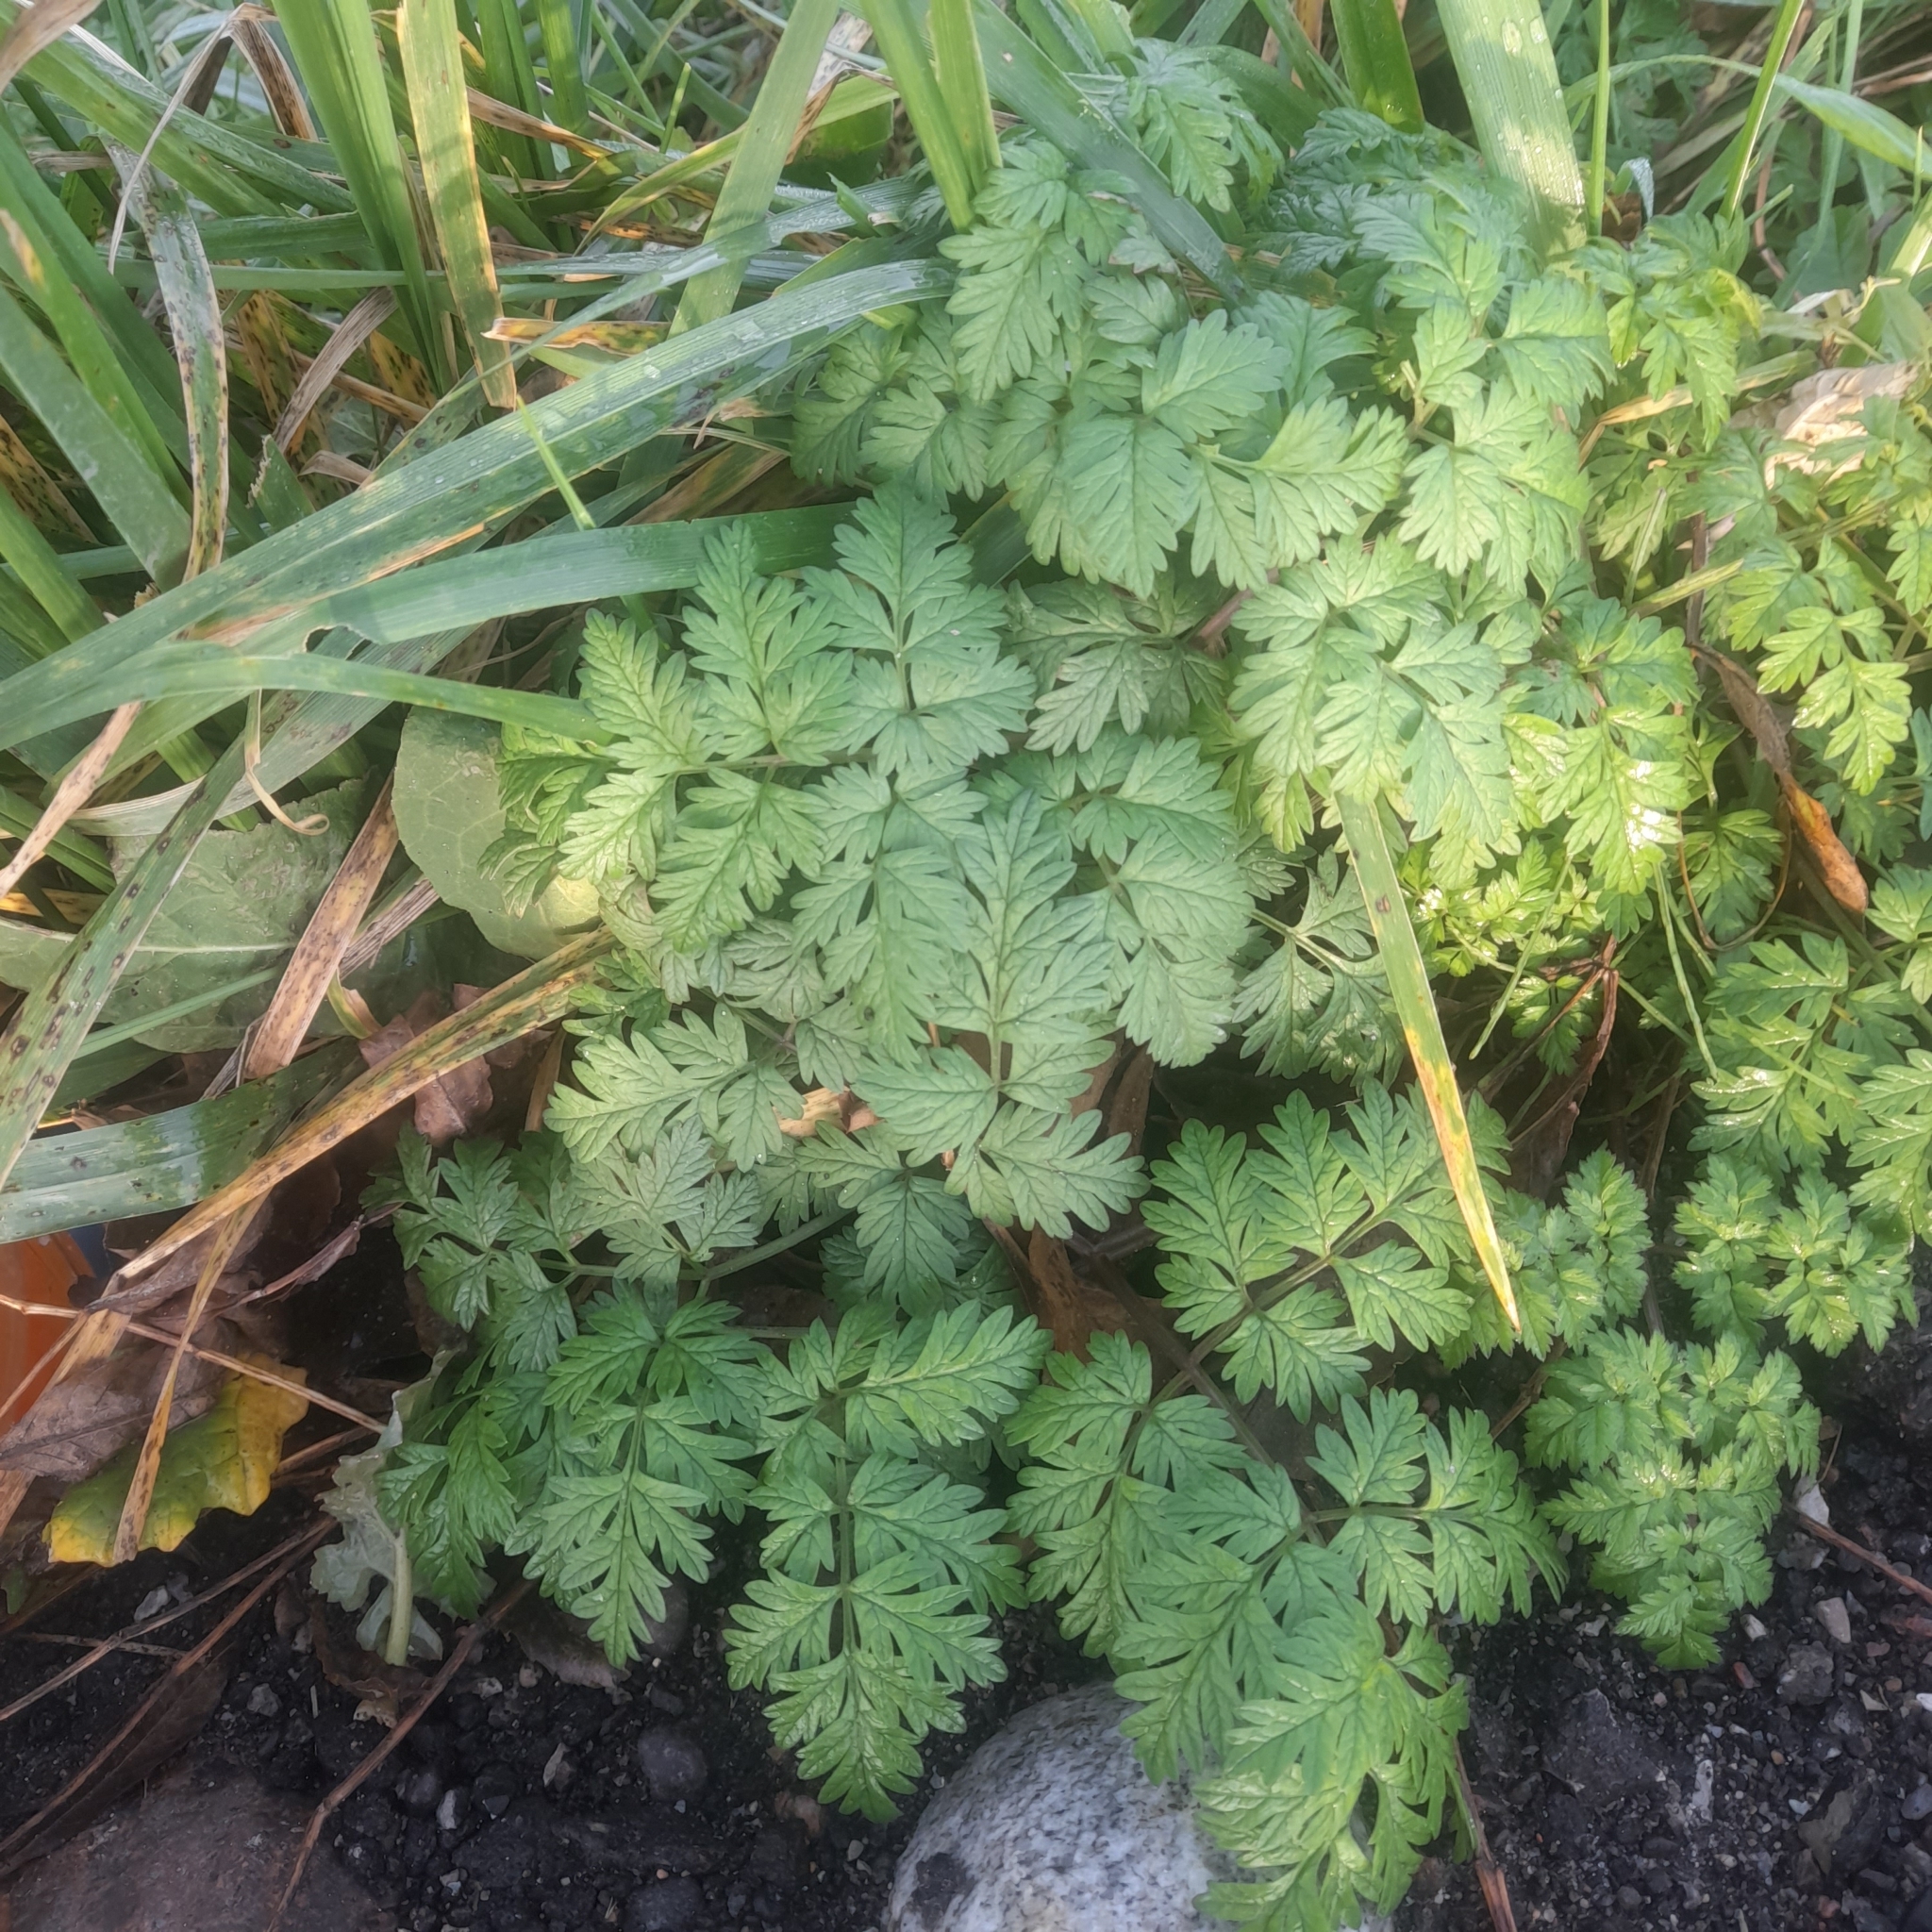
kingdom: Plantae
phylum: Tracheophyta
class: Magnoliopsida
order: Apiales
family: Apiaceae
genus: Anthriscus
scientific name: Anthriscus sylvestris
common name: Cow parsley
